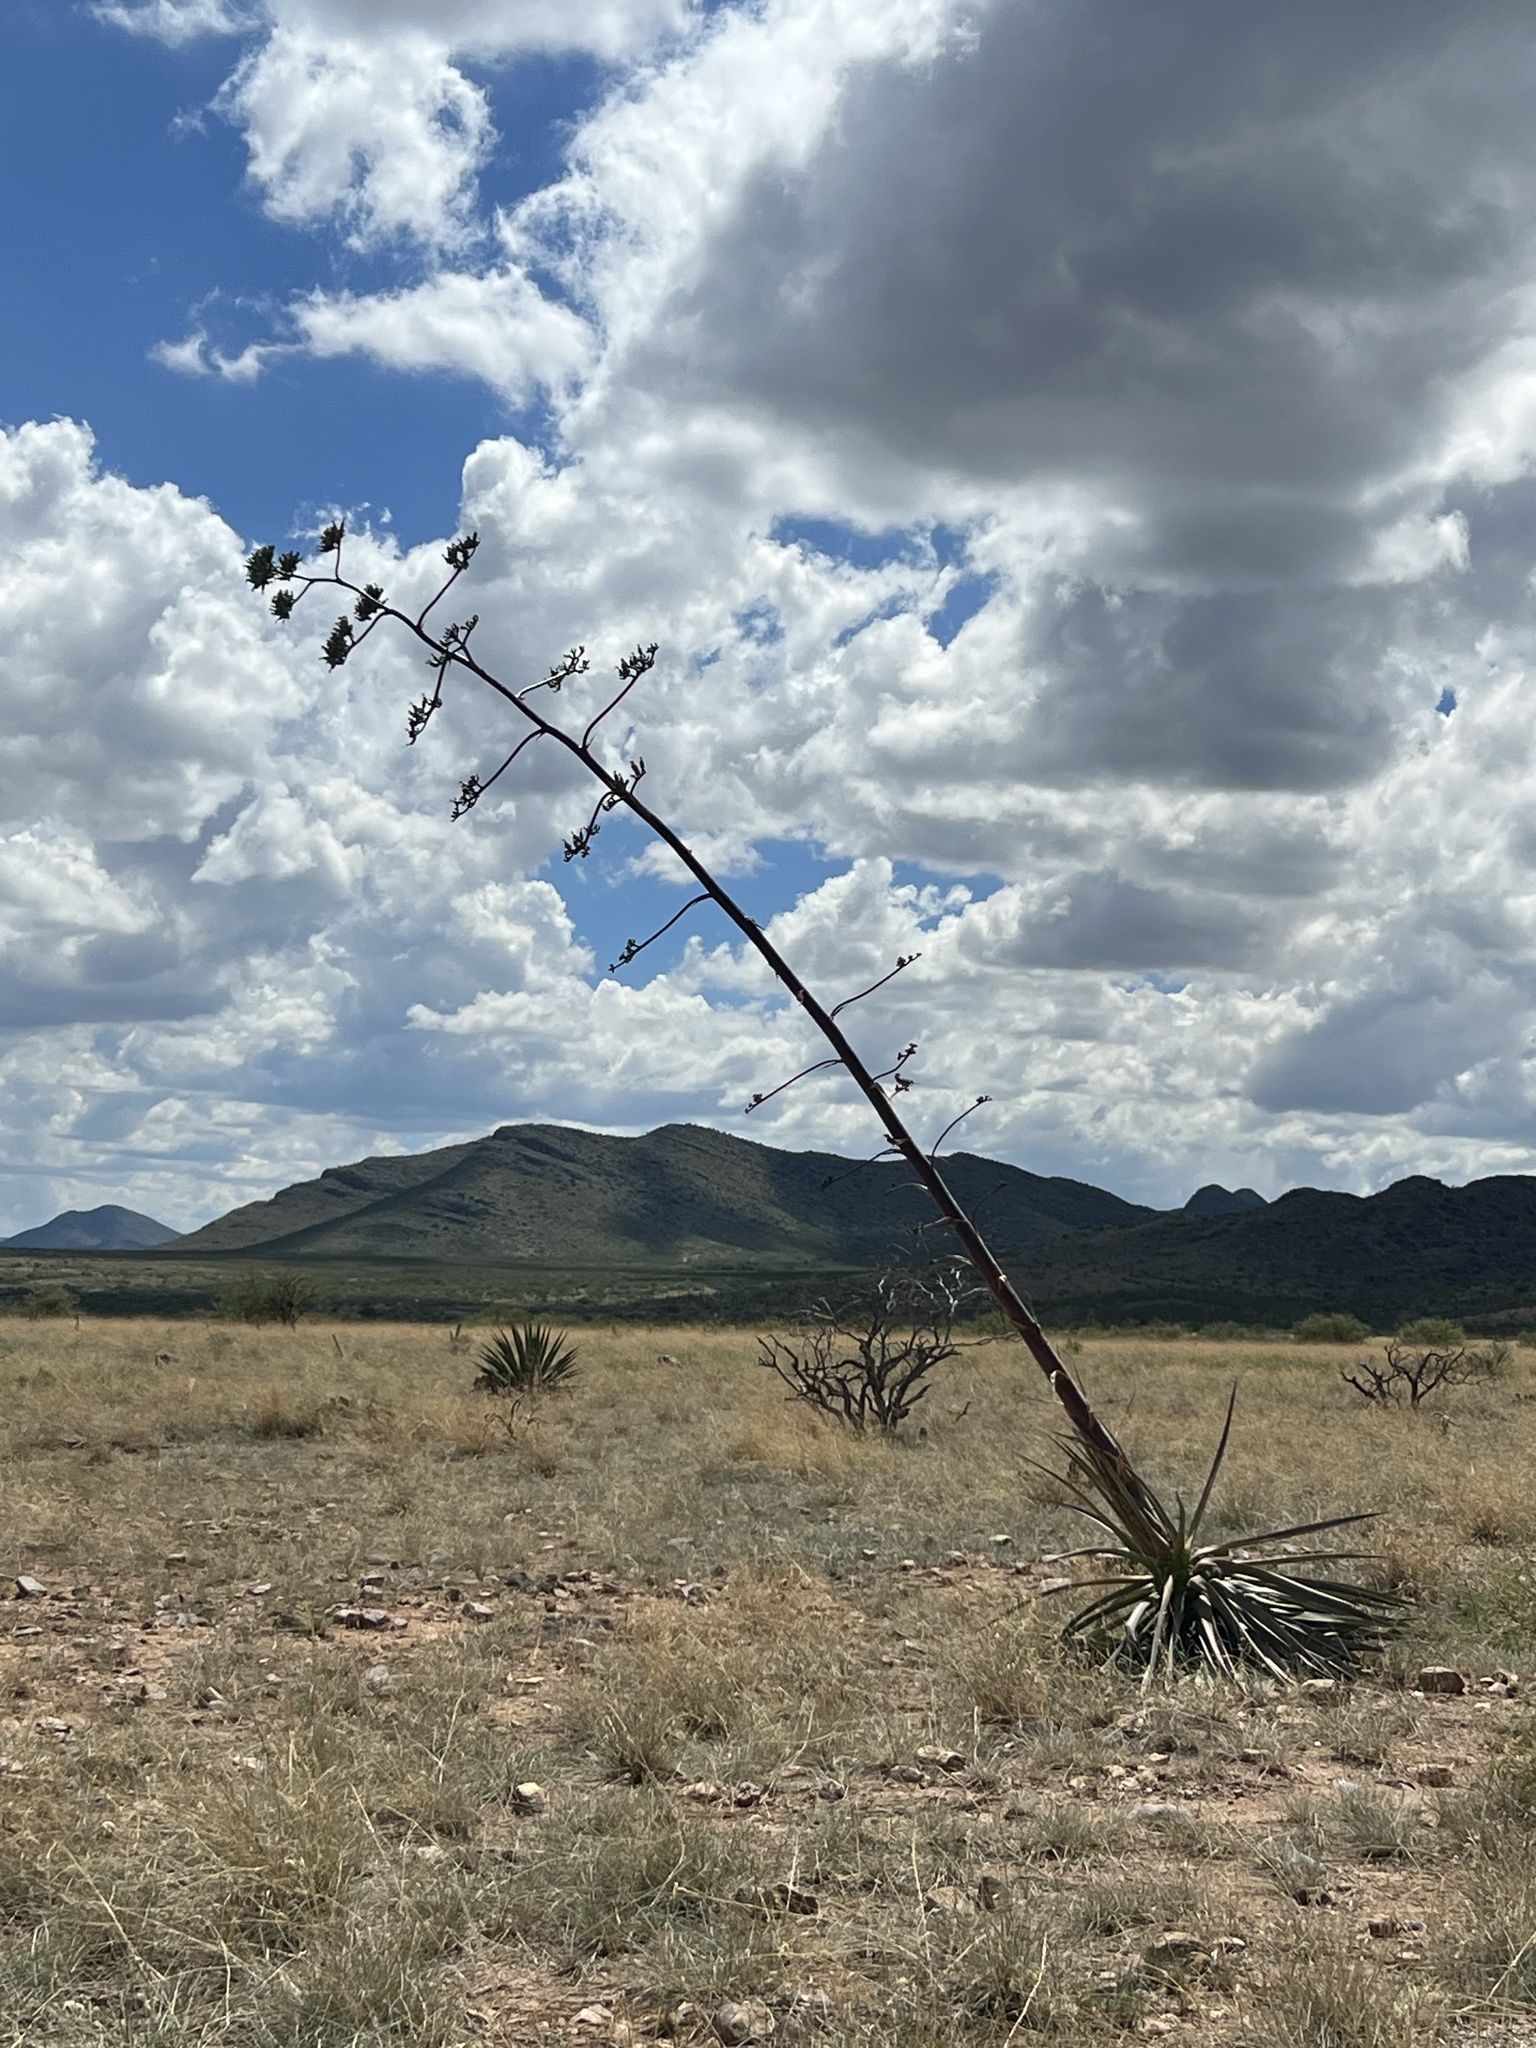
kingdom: Plantae
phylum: Tracheophyta
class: Liliopsida
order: Asparagales
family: Asparagaceae
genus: Agave
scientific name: Agave palmeri
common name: Palmer agave
